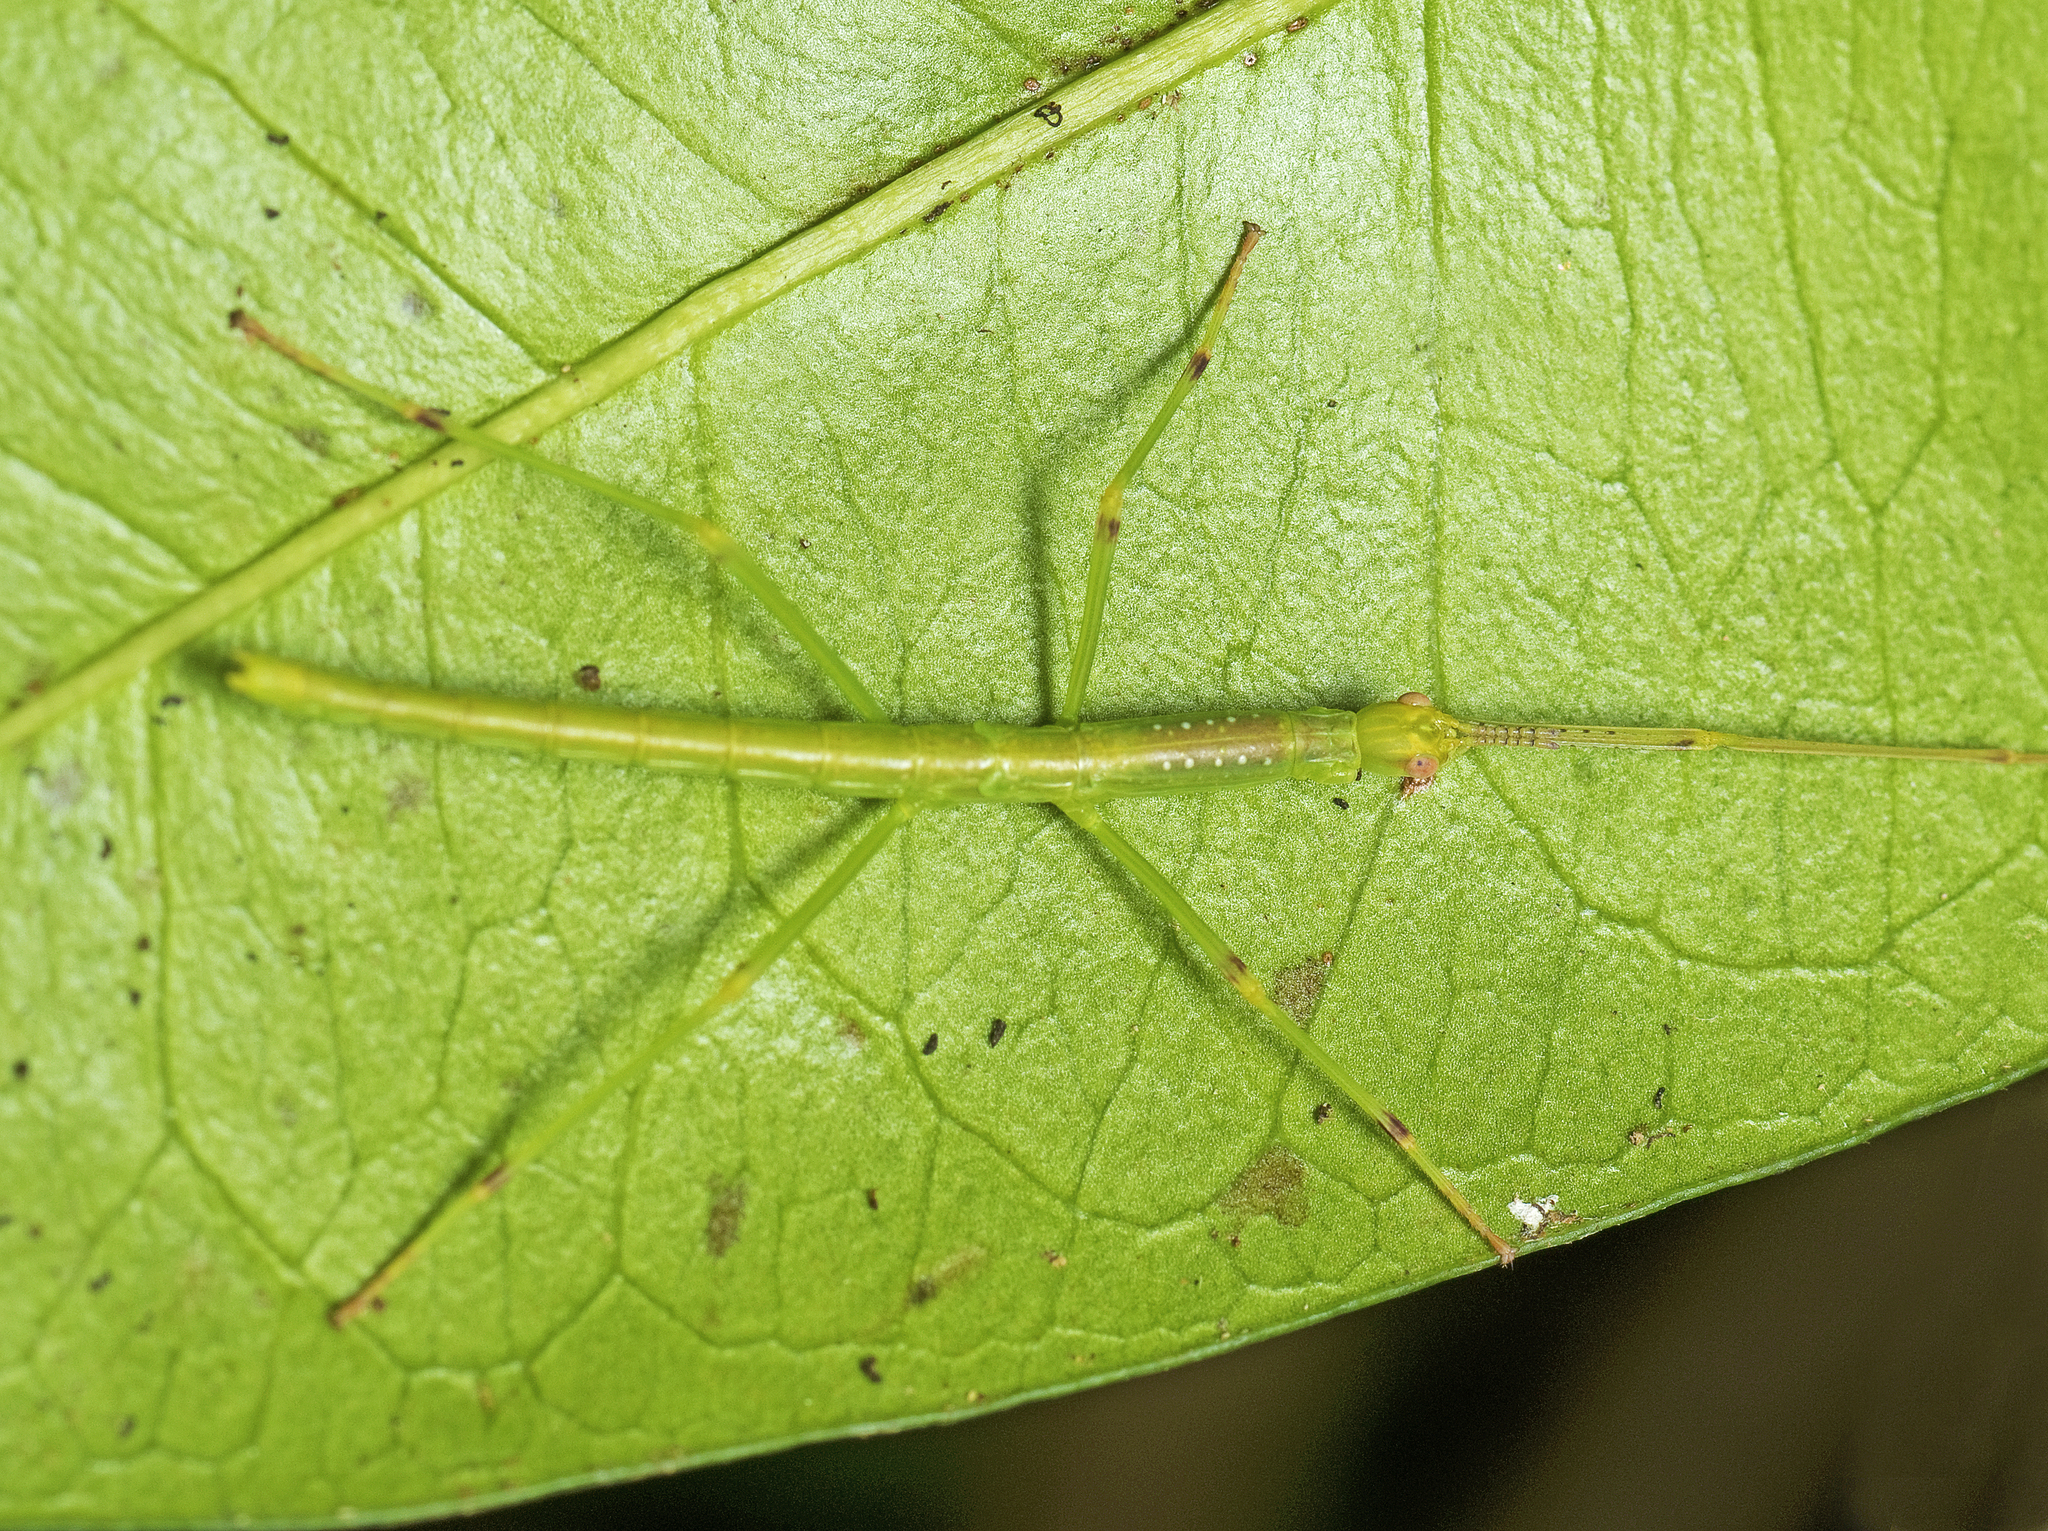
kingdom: Animalia
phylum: Arthropoda
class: Insecta
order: Phasmida
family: Phasmatidae
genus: Anchiale
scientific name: Anchiale austrotessulata
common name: Tessellated stick-insect
